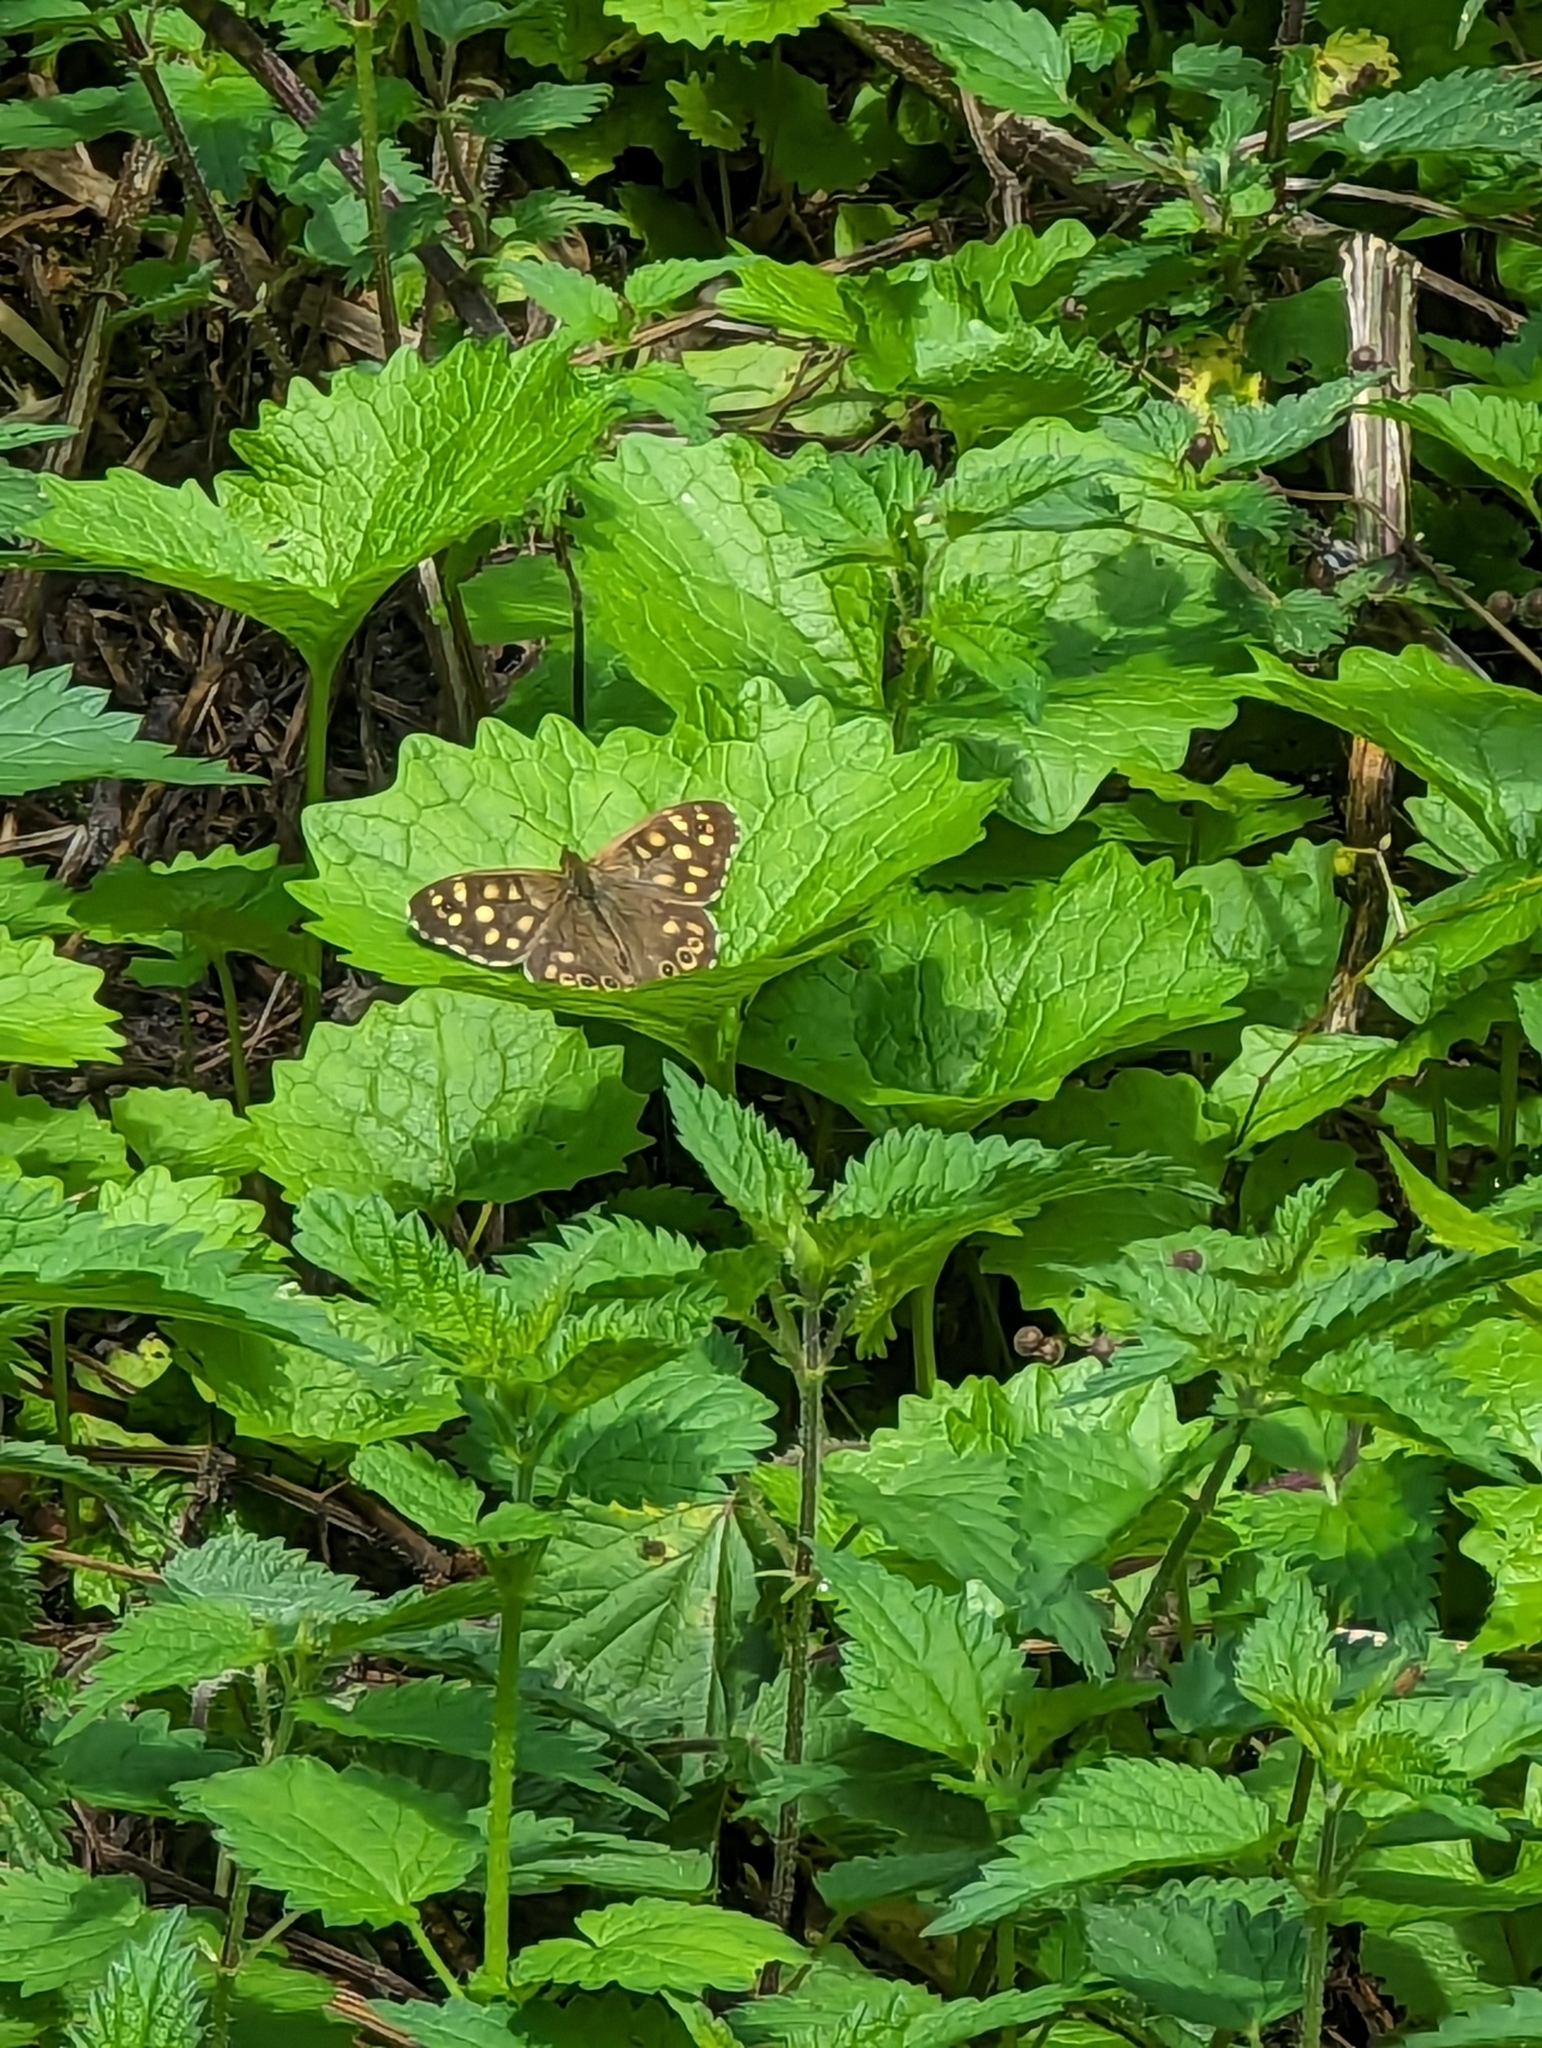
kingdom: Animalia
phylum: Arthropoda
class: Insecta
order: Lepidoptera
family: Nymphalidae
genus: Pararge
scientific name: Pararge aegeria
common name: Speckled wood
